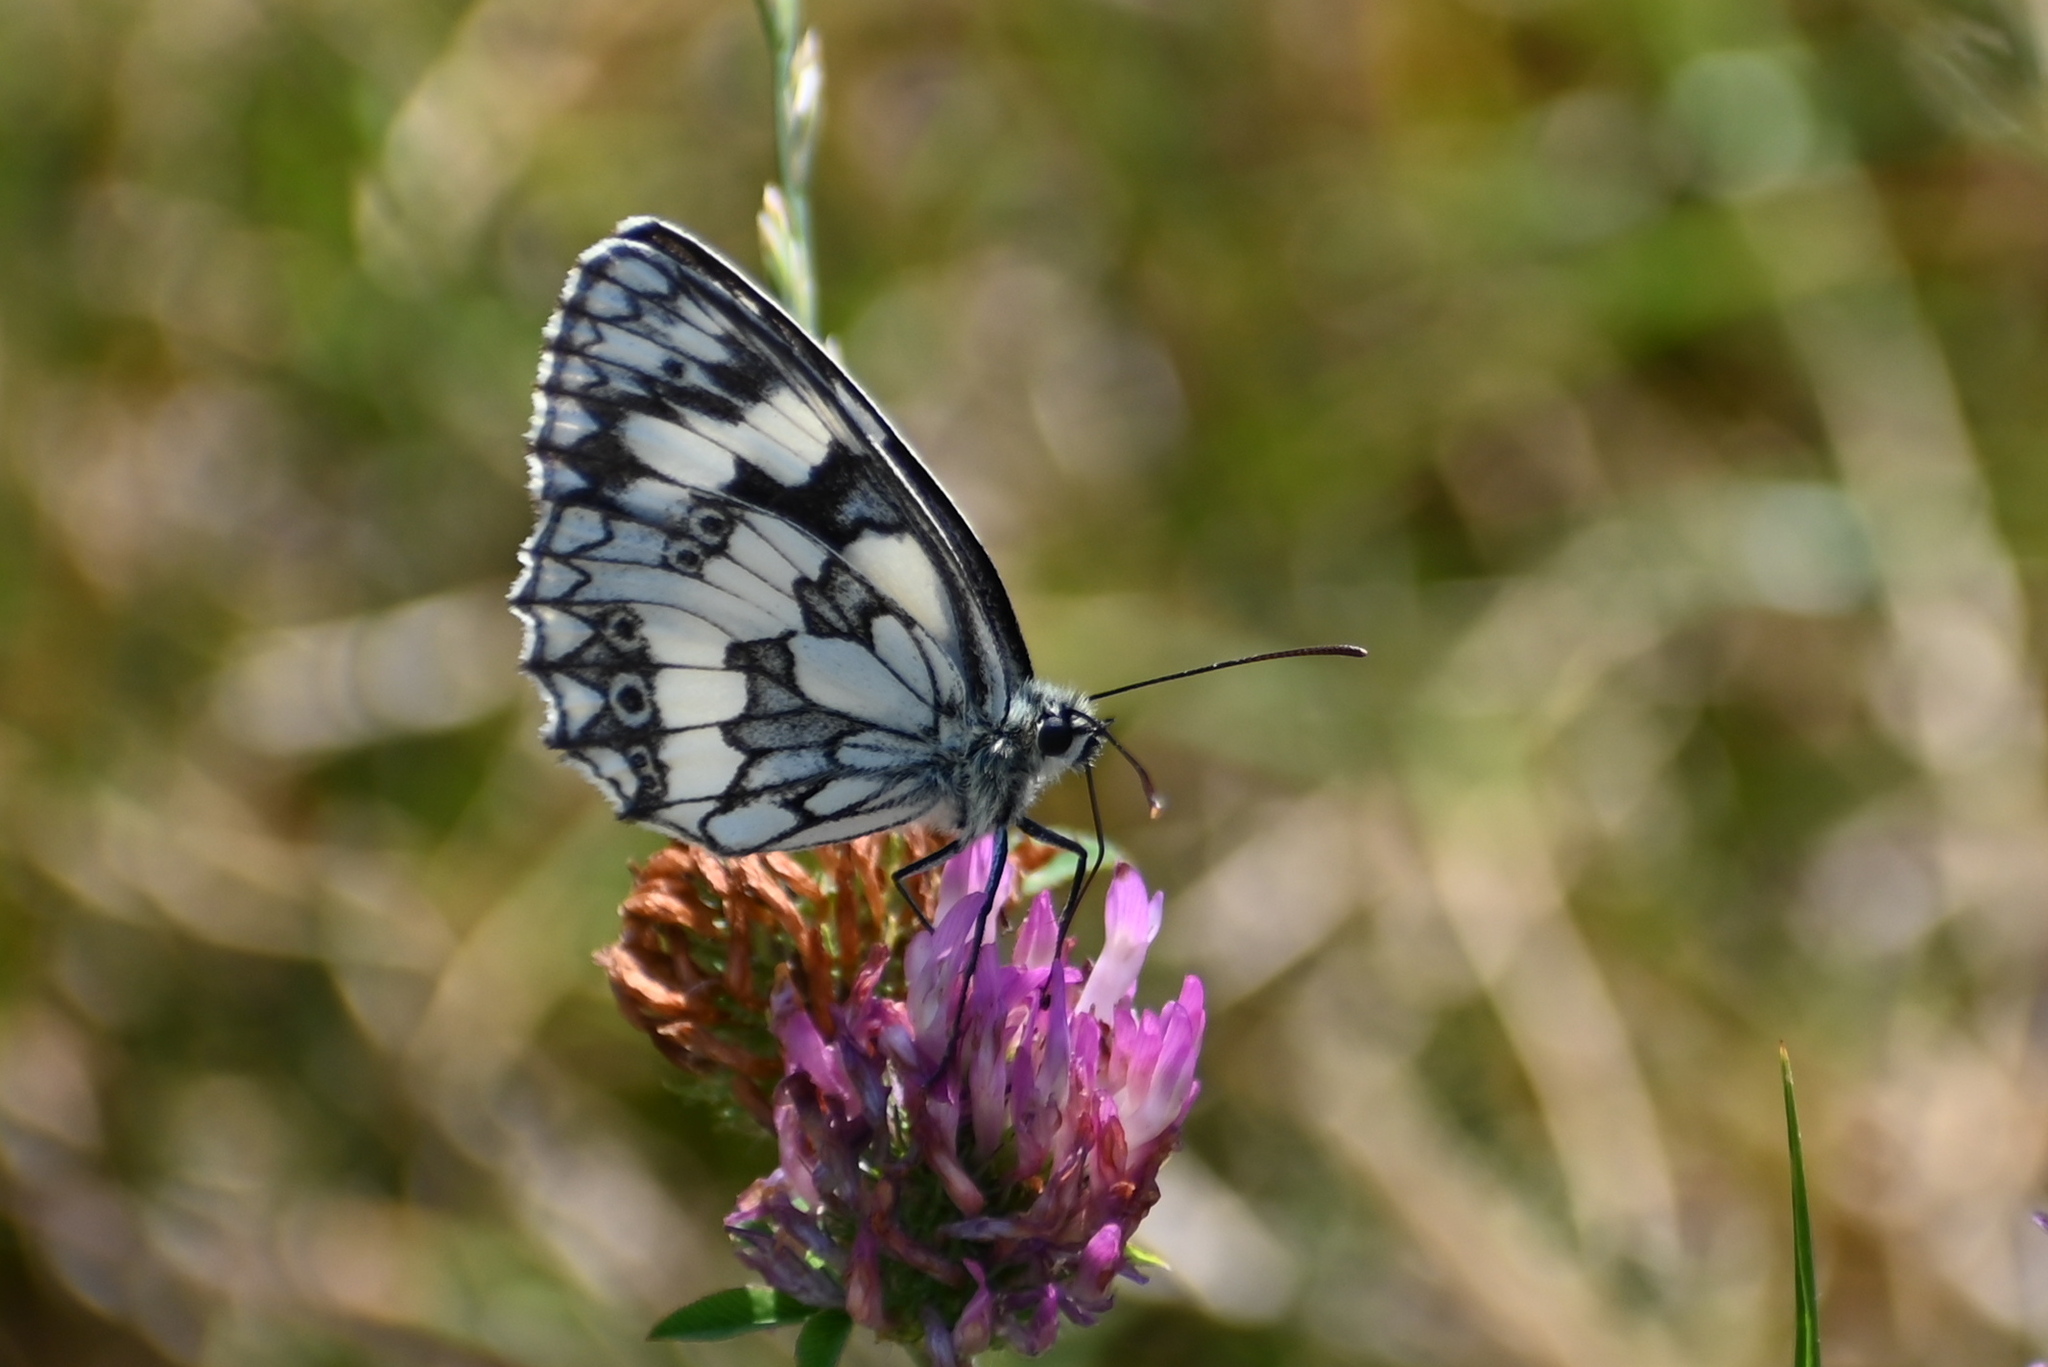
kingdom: Animalia
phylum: Arthropoda
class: Insecta
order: Lepidoptera
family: Nymphalidae
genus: Melanargia
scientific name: Melanargia galathea
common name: Marbled white
